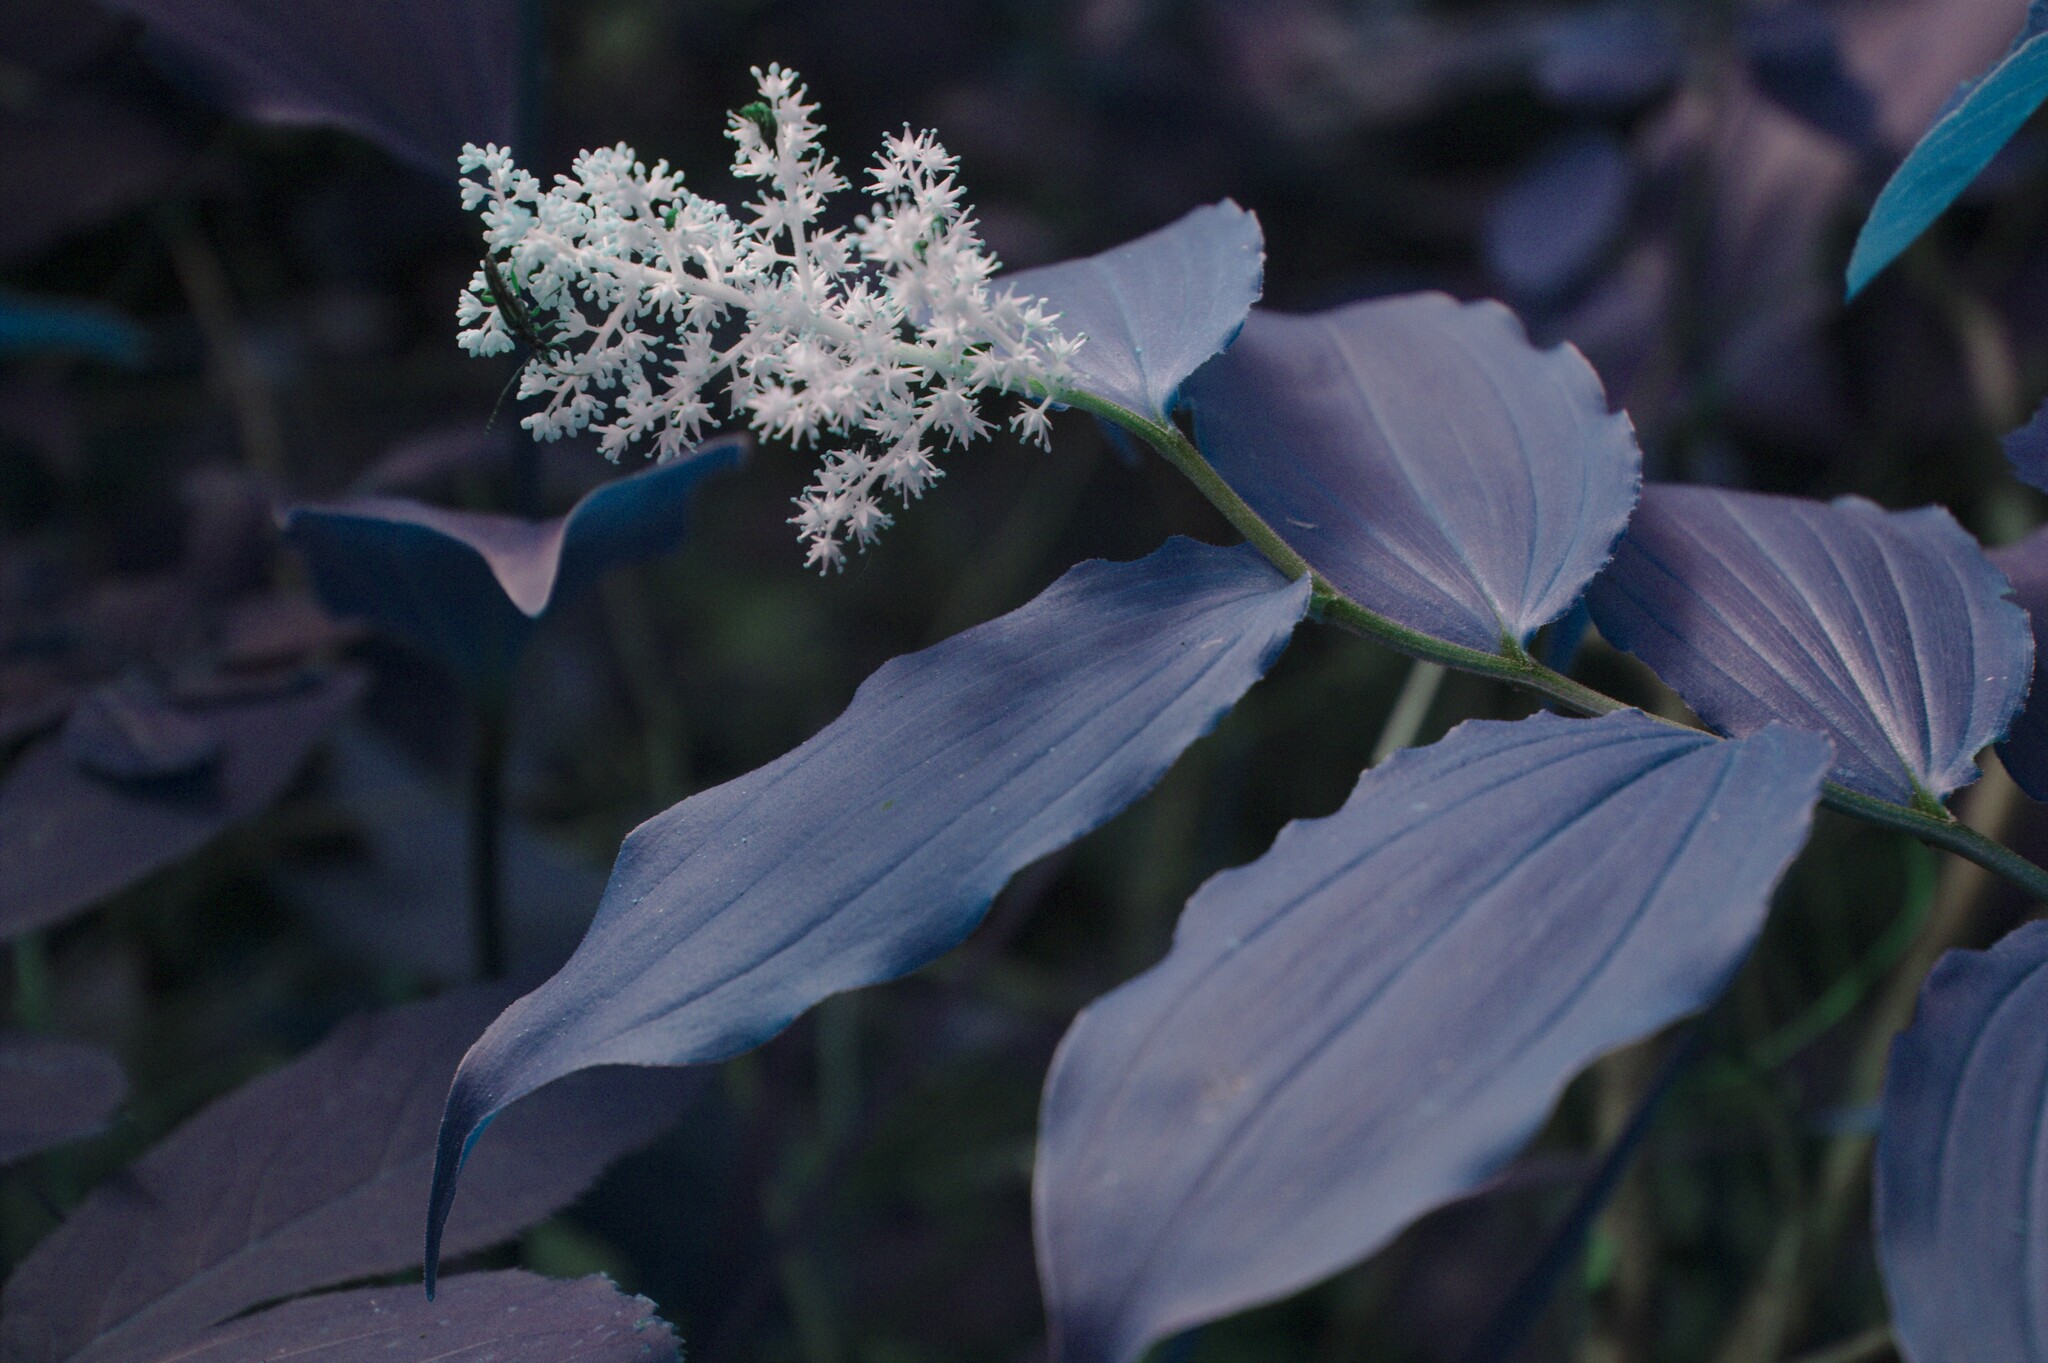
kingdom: Plantae
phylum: Tracheophyta
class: Liliopsida
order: Asparagales
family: Asparagaceae
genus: Maianthemum
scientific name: Maianthemum racemosum
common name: False spikenard
